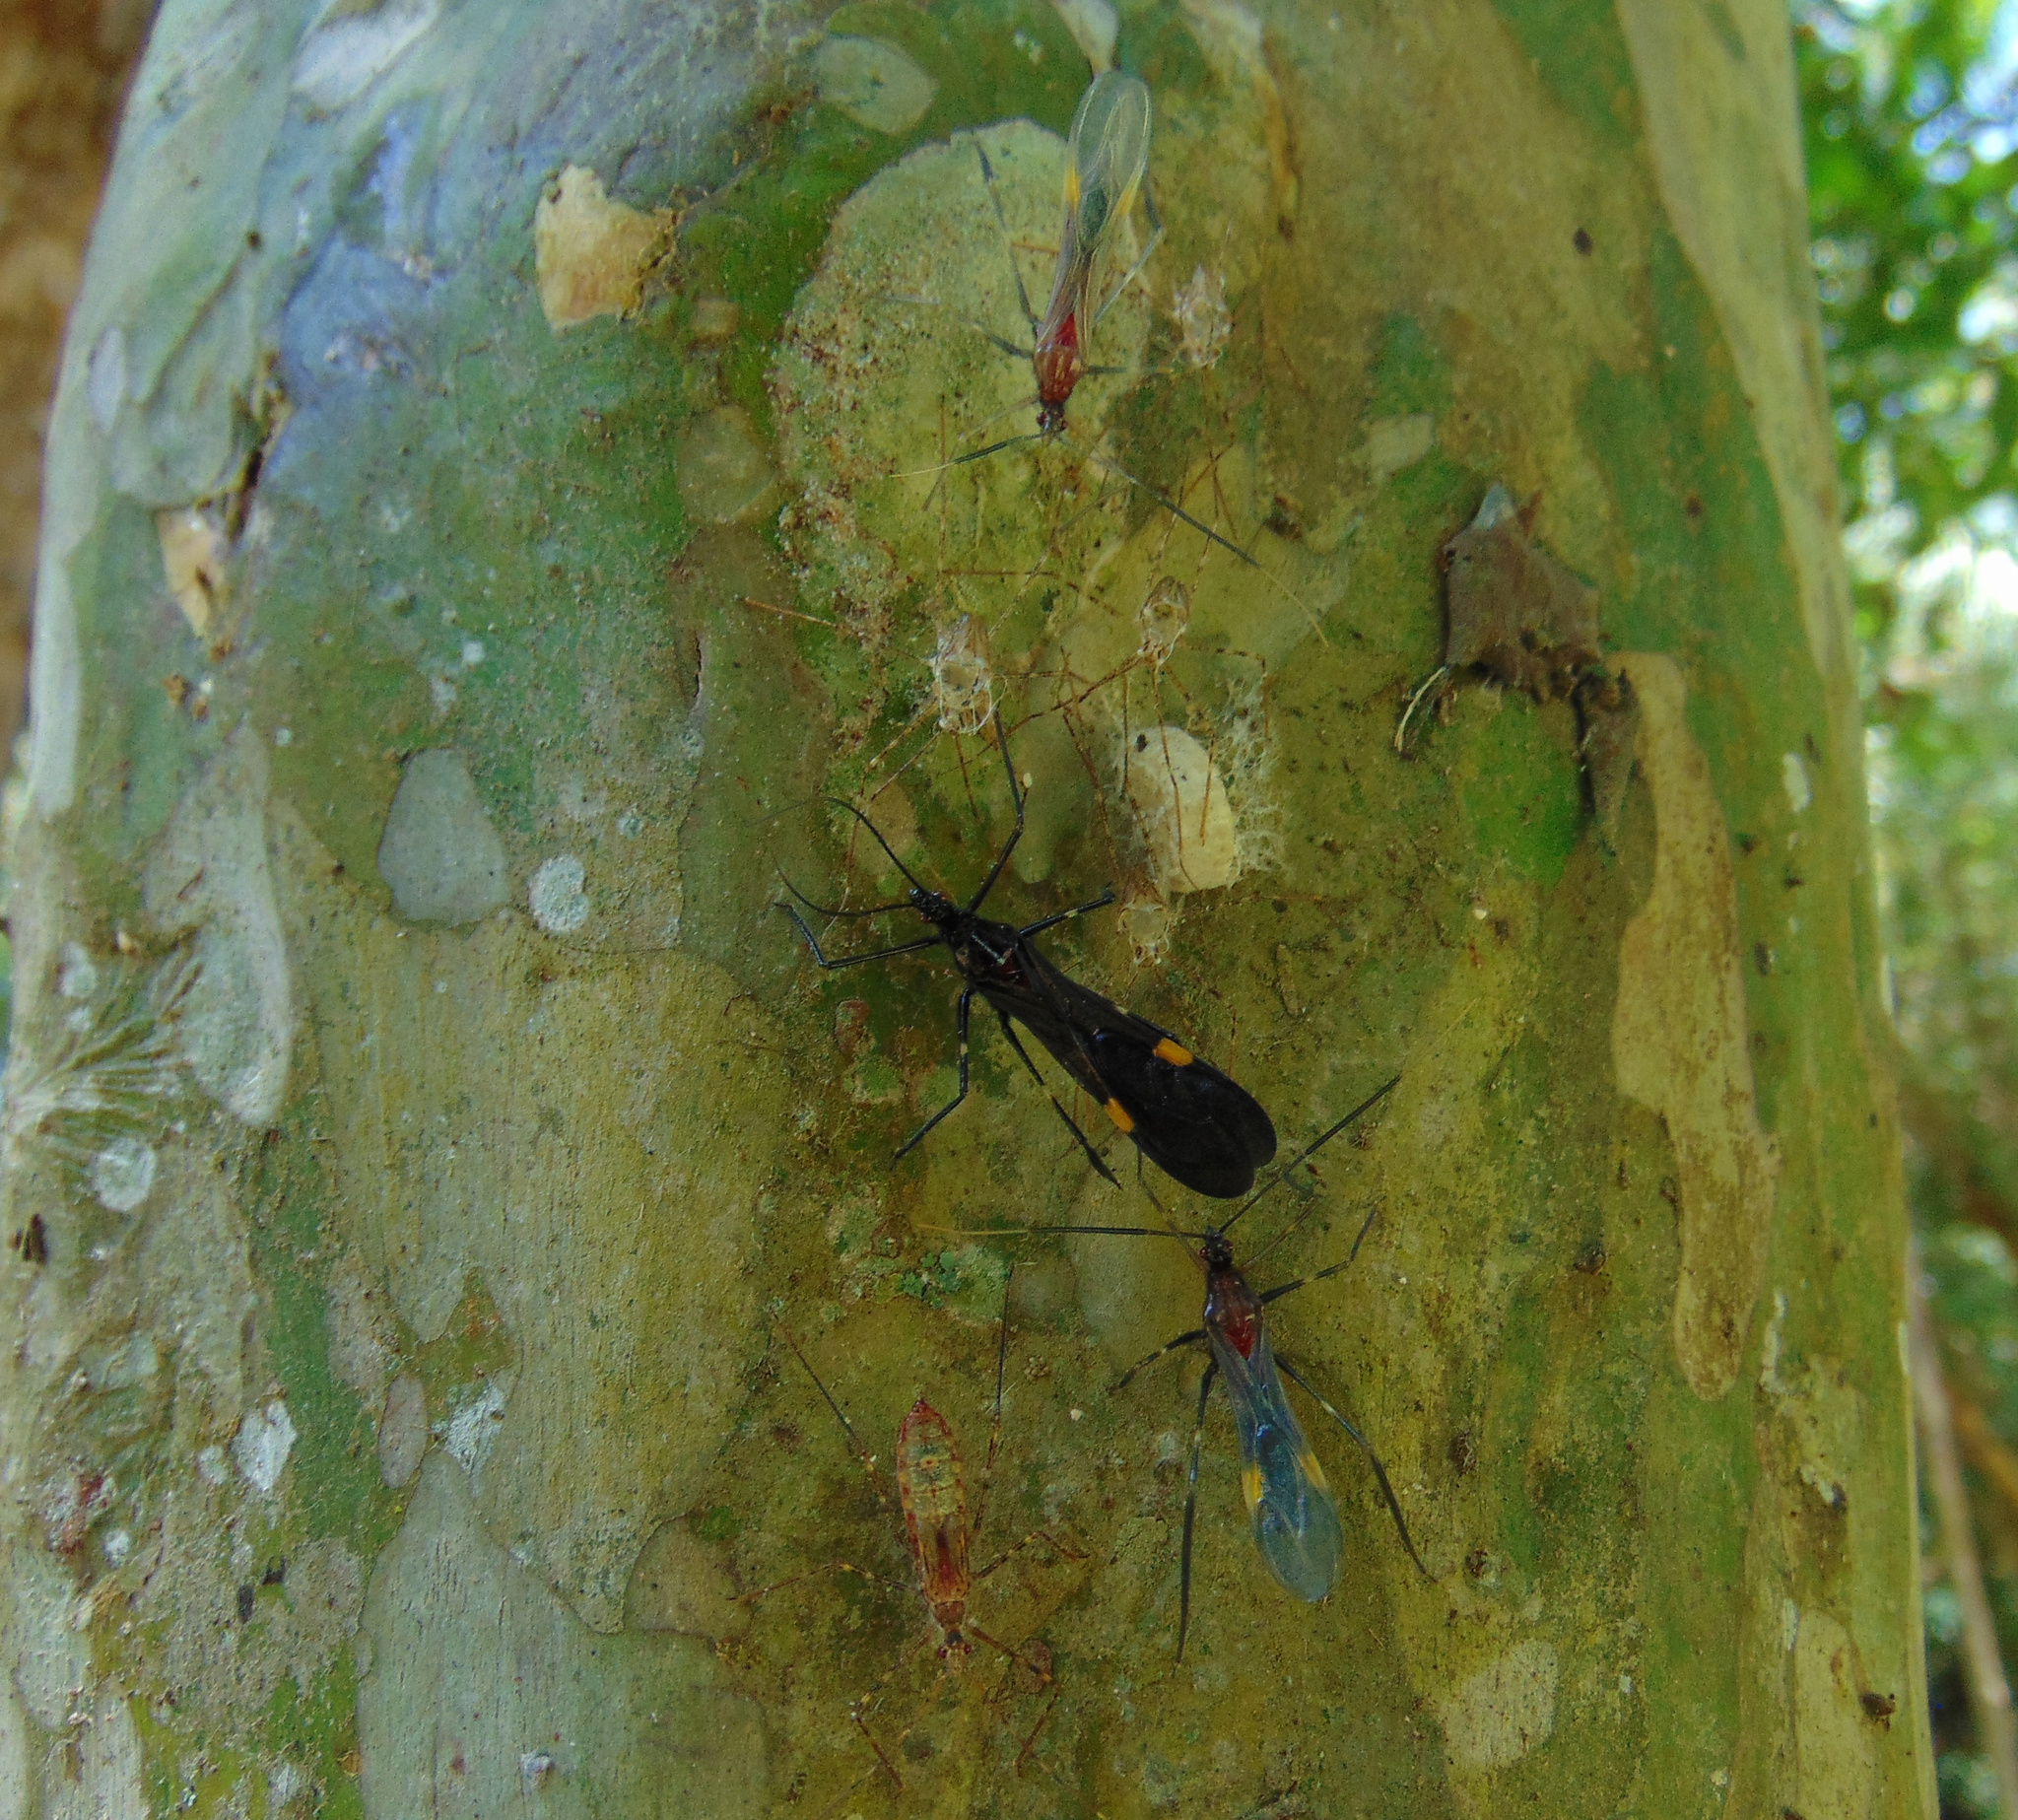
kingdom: Animalia
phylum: Arthropoda
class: Insecta
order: Hemiptera
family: Reduviidae
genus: Parahiranetis
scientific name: Parahiranetis salgadoi
